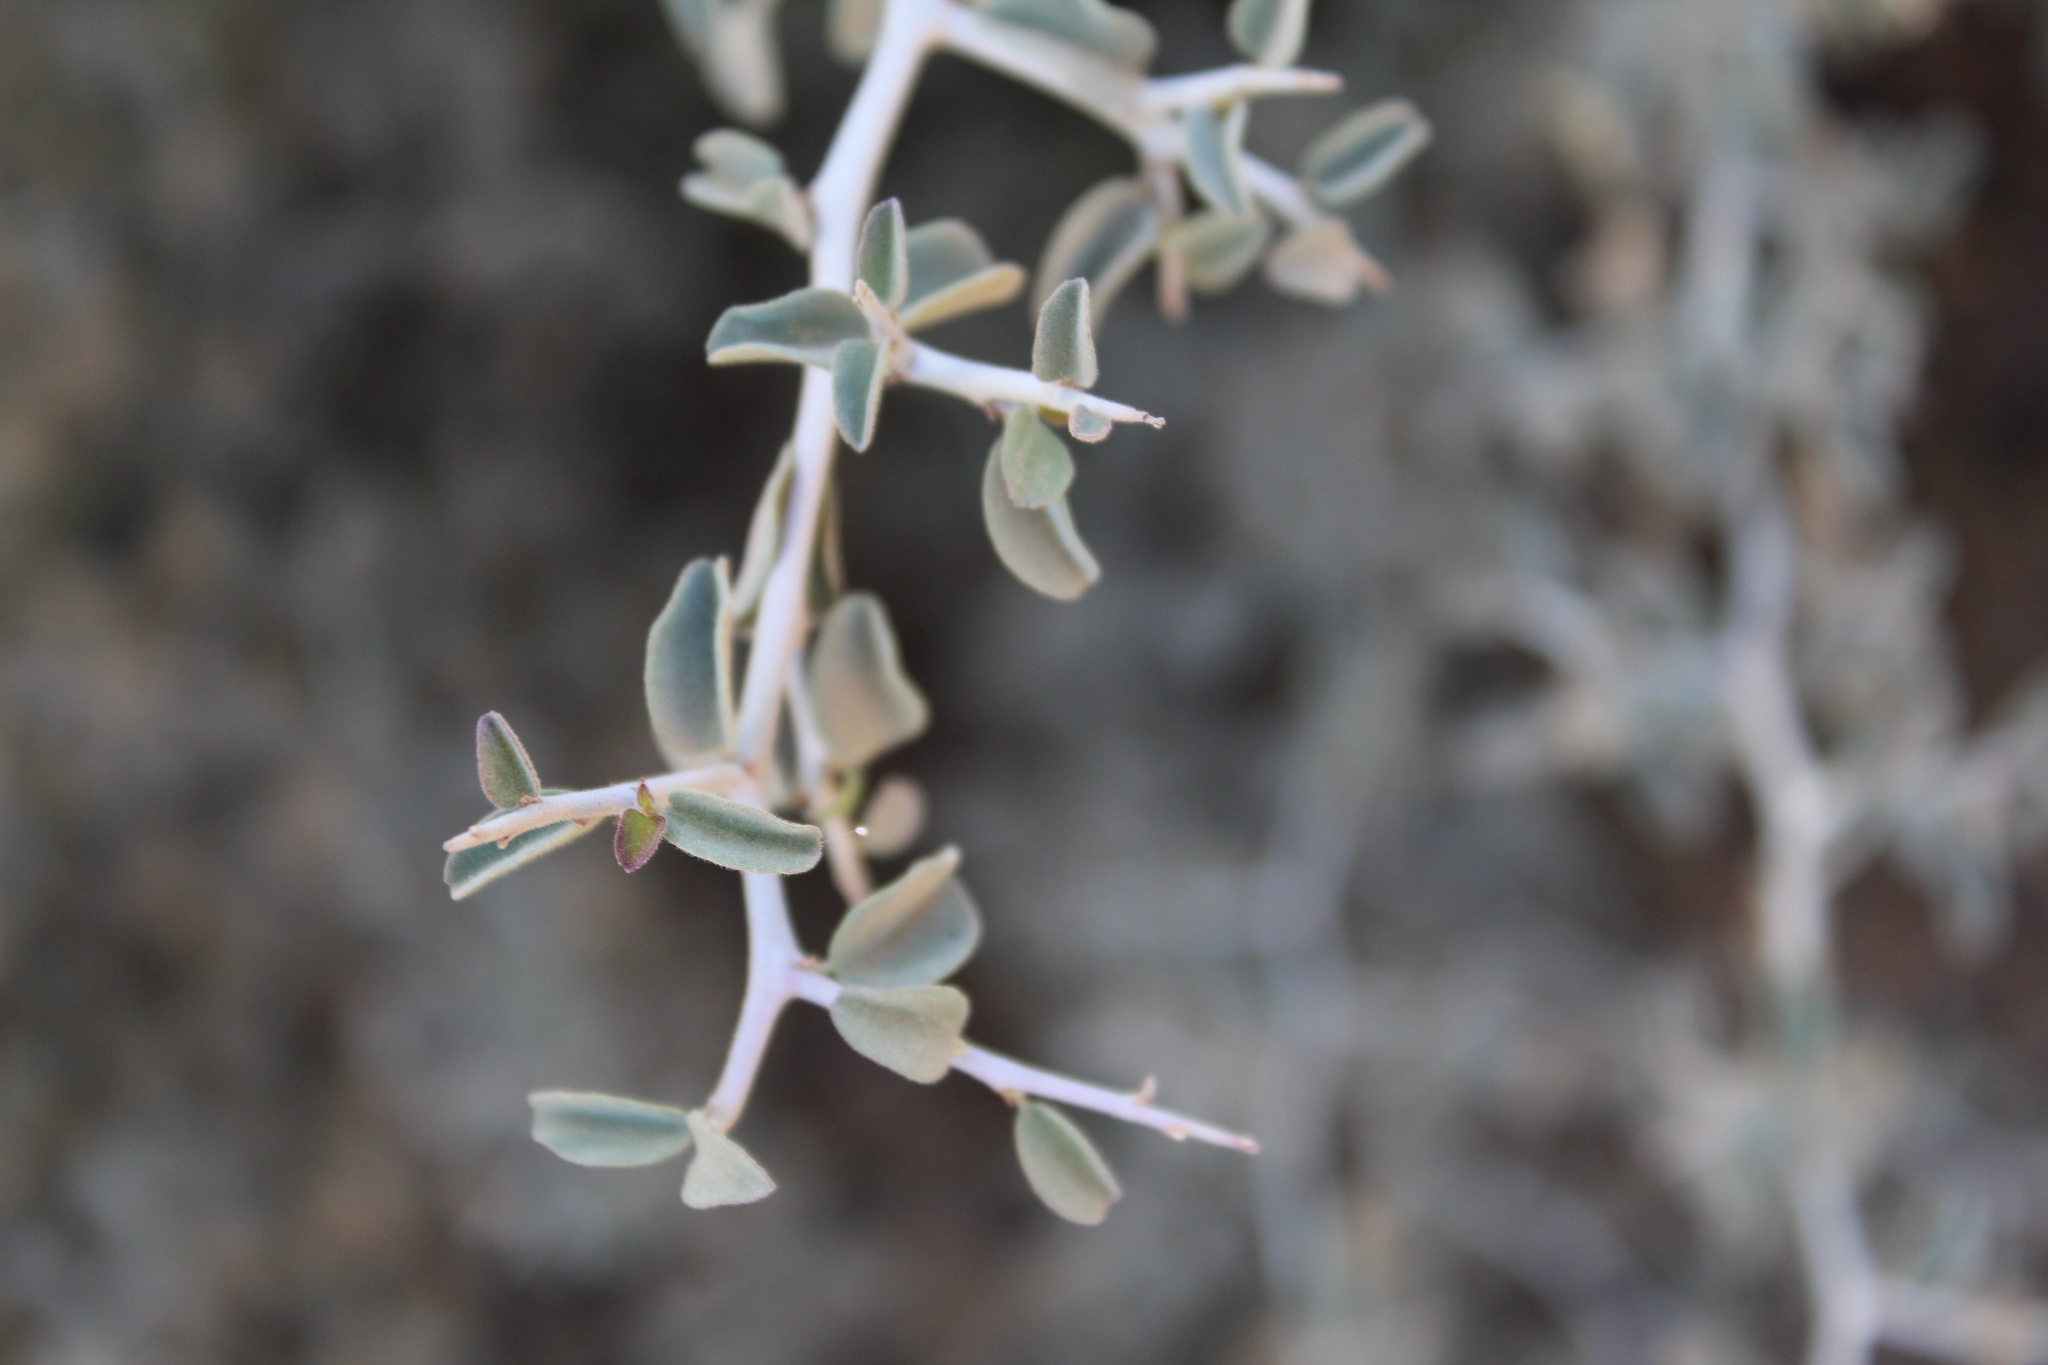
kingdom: Plantae
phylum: Tracheophyta
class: Magnoliopsida
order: Rosales
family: Rhamnaceae
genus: Ceanothus
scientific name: Ceanothus cordulatus
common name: Mountain whitethorn
